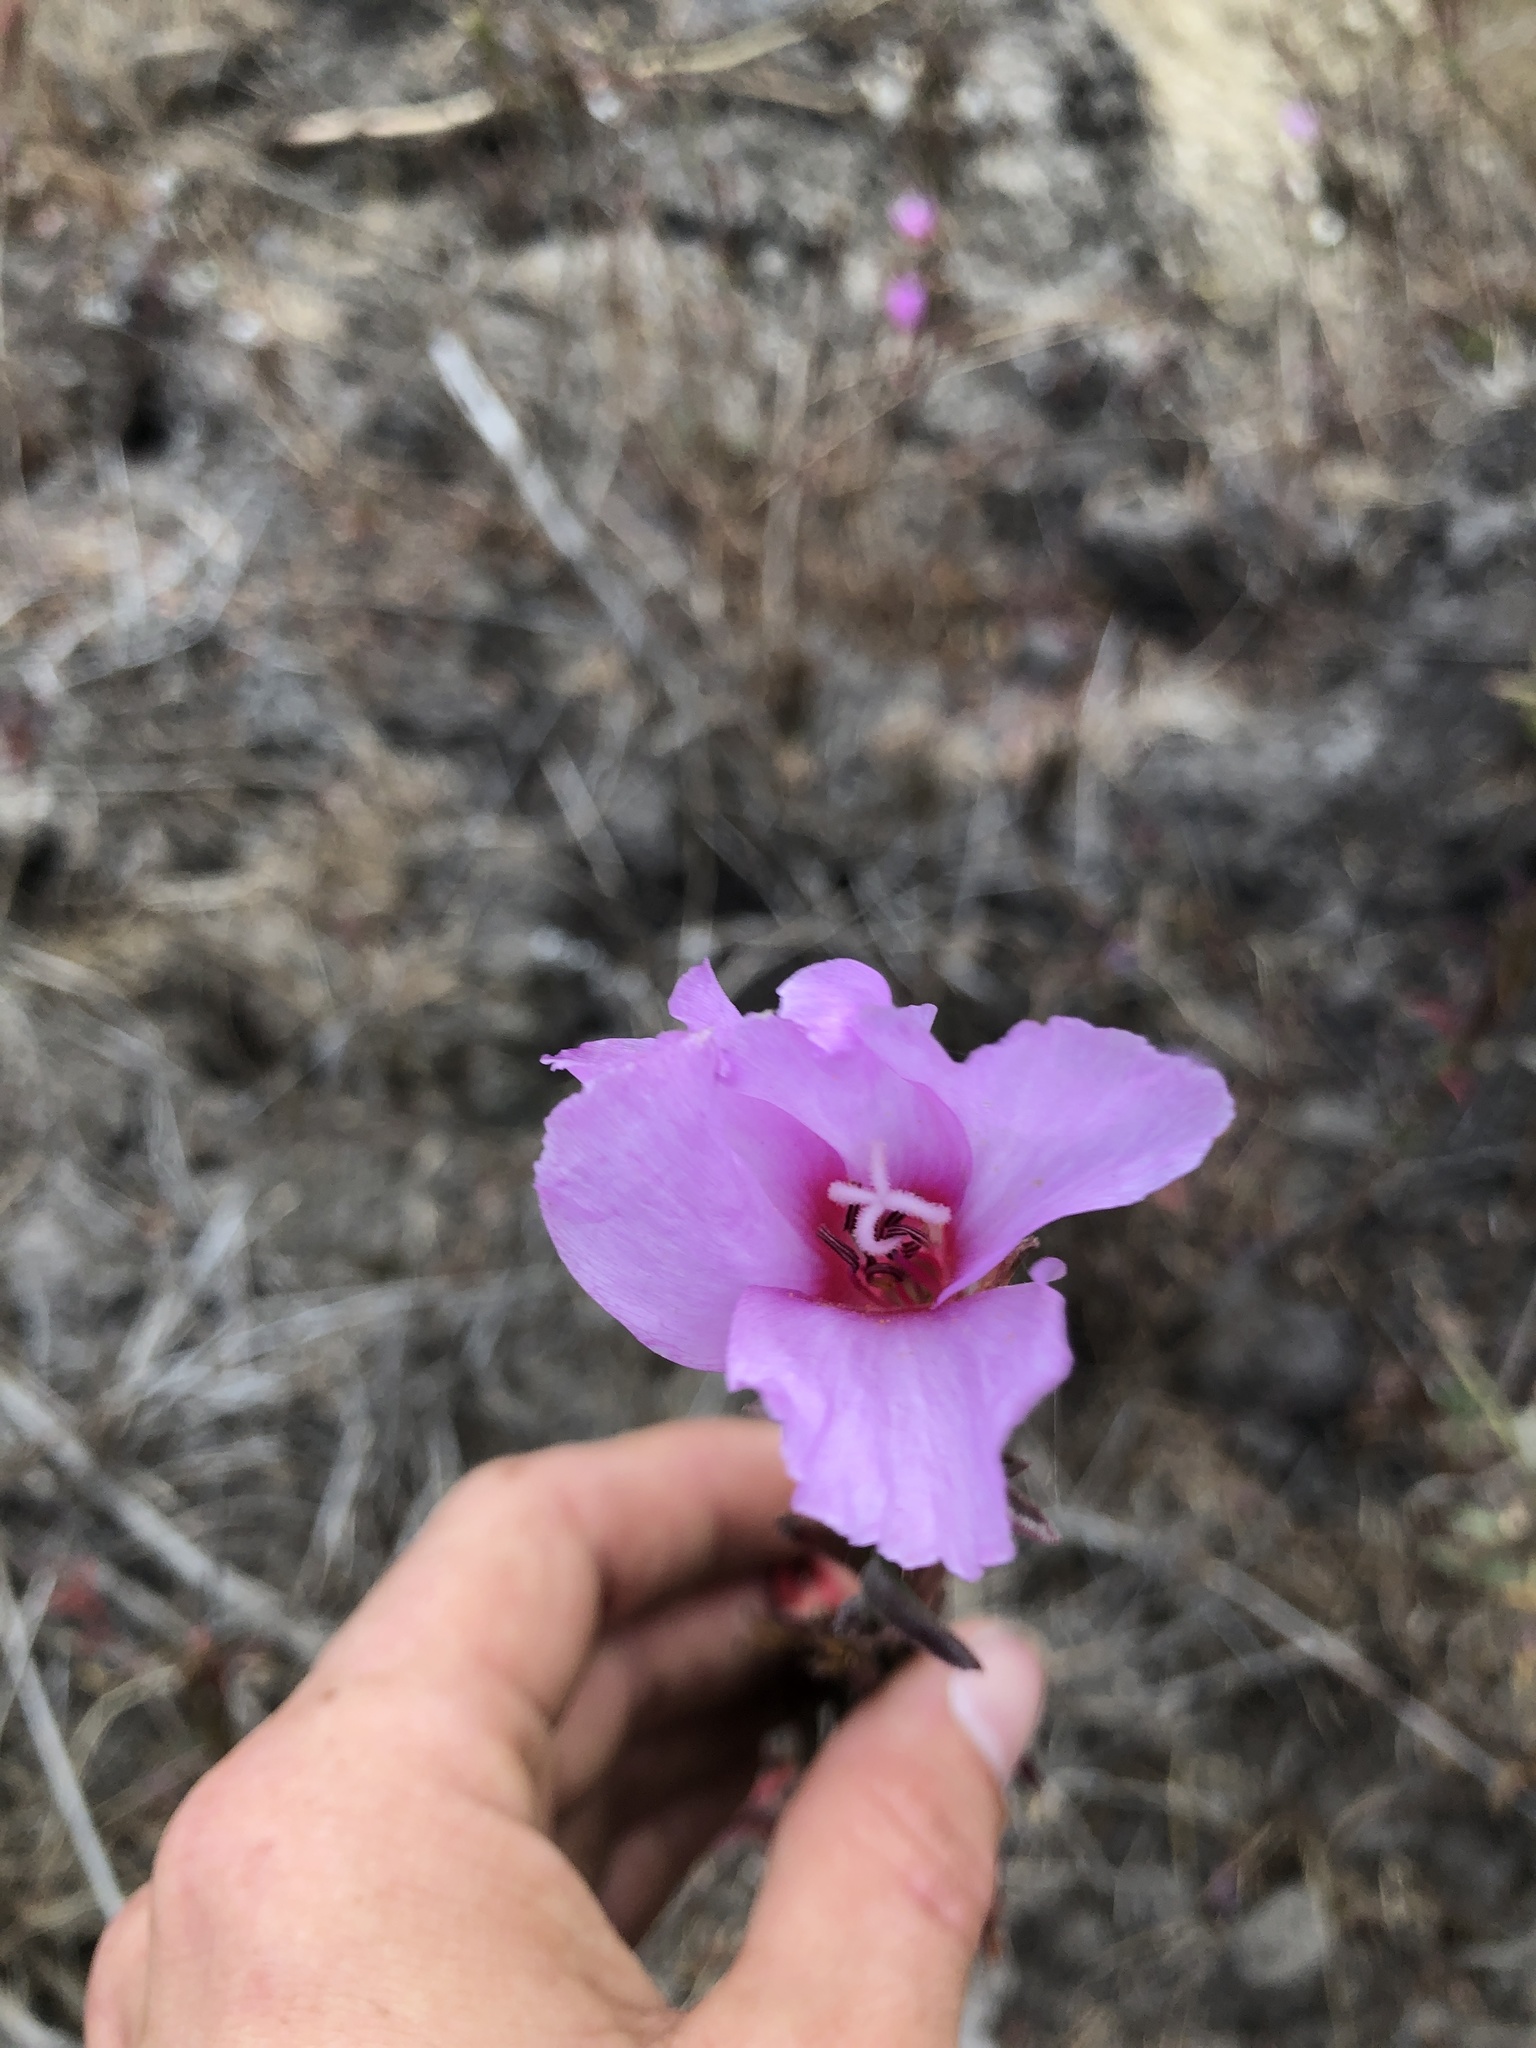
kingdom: Plantae
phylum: Tracheophyta
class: Magnoliopsida
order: Myrtales
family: Onagraceae
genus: Clarkia
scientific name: Clarkia rubicunda
